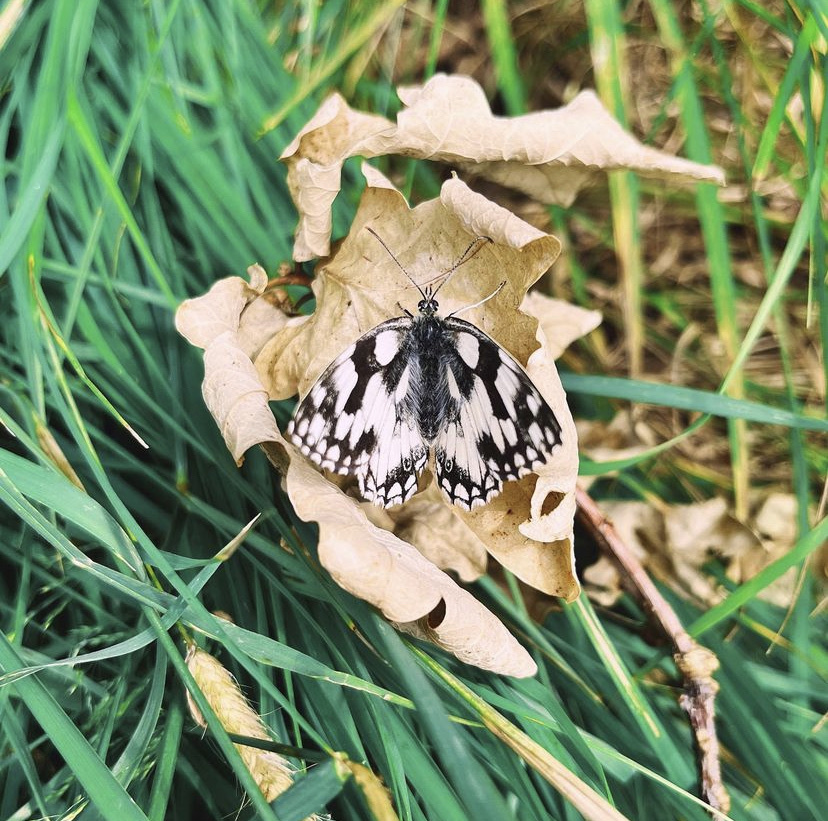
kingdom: Animalia
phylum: Arthropoda
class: Insecta
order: Lepidoptera
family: Nymphalidae
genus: Melanargia
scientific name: Melanargia galathea
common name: Marbled white
